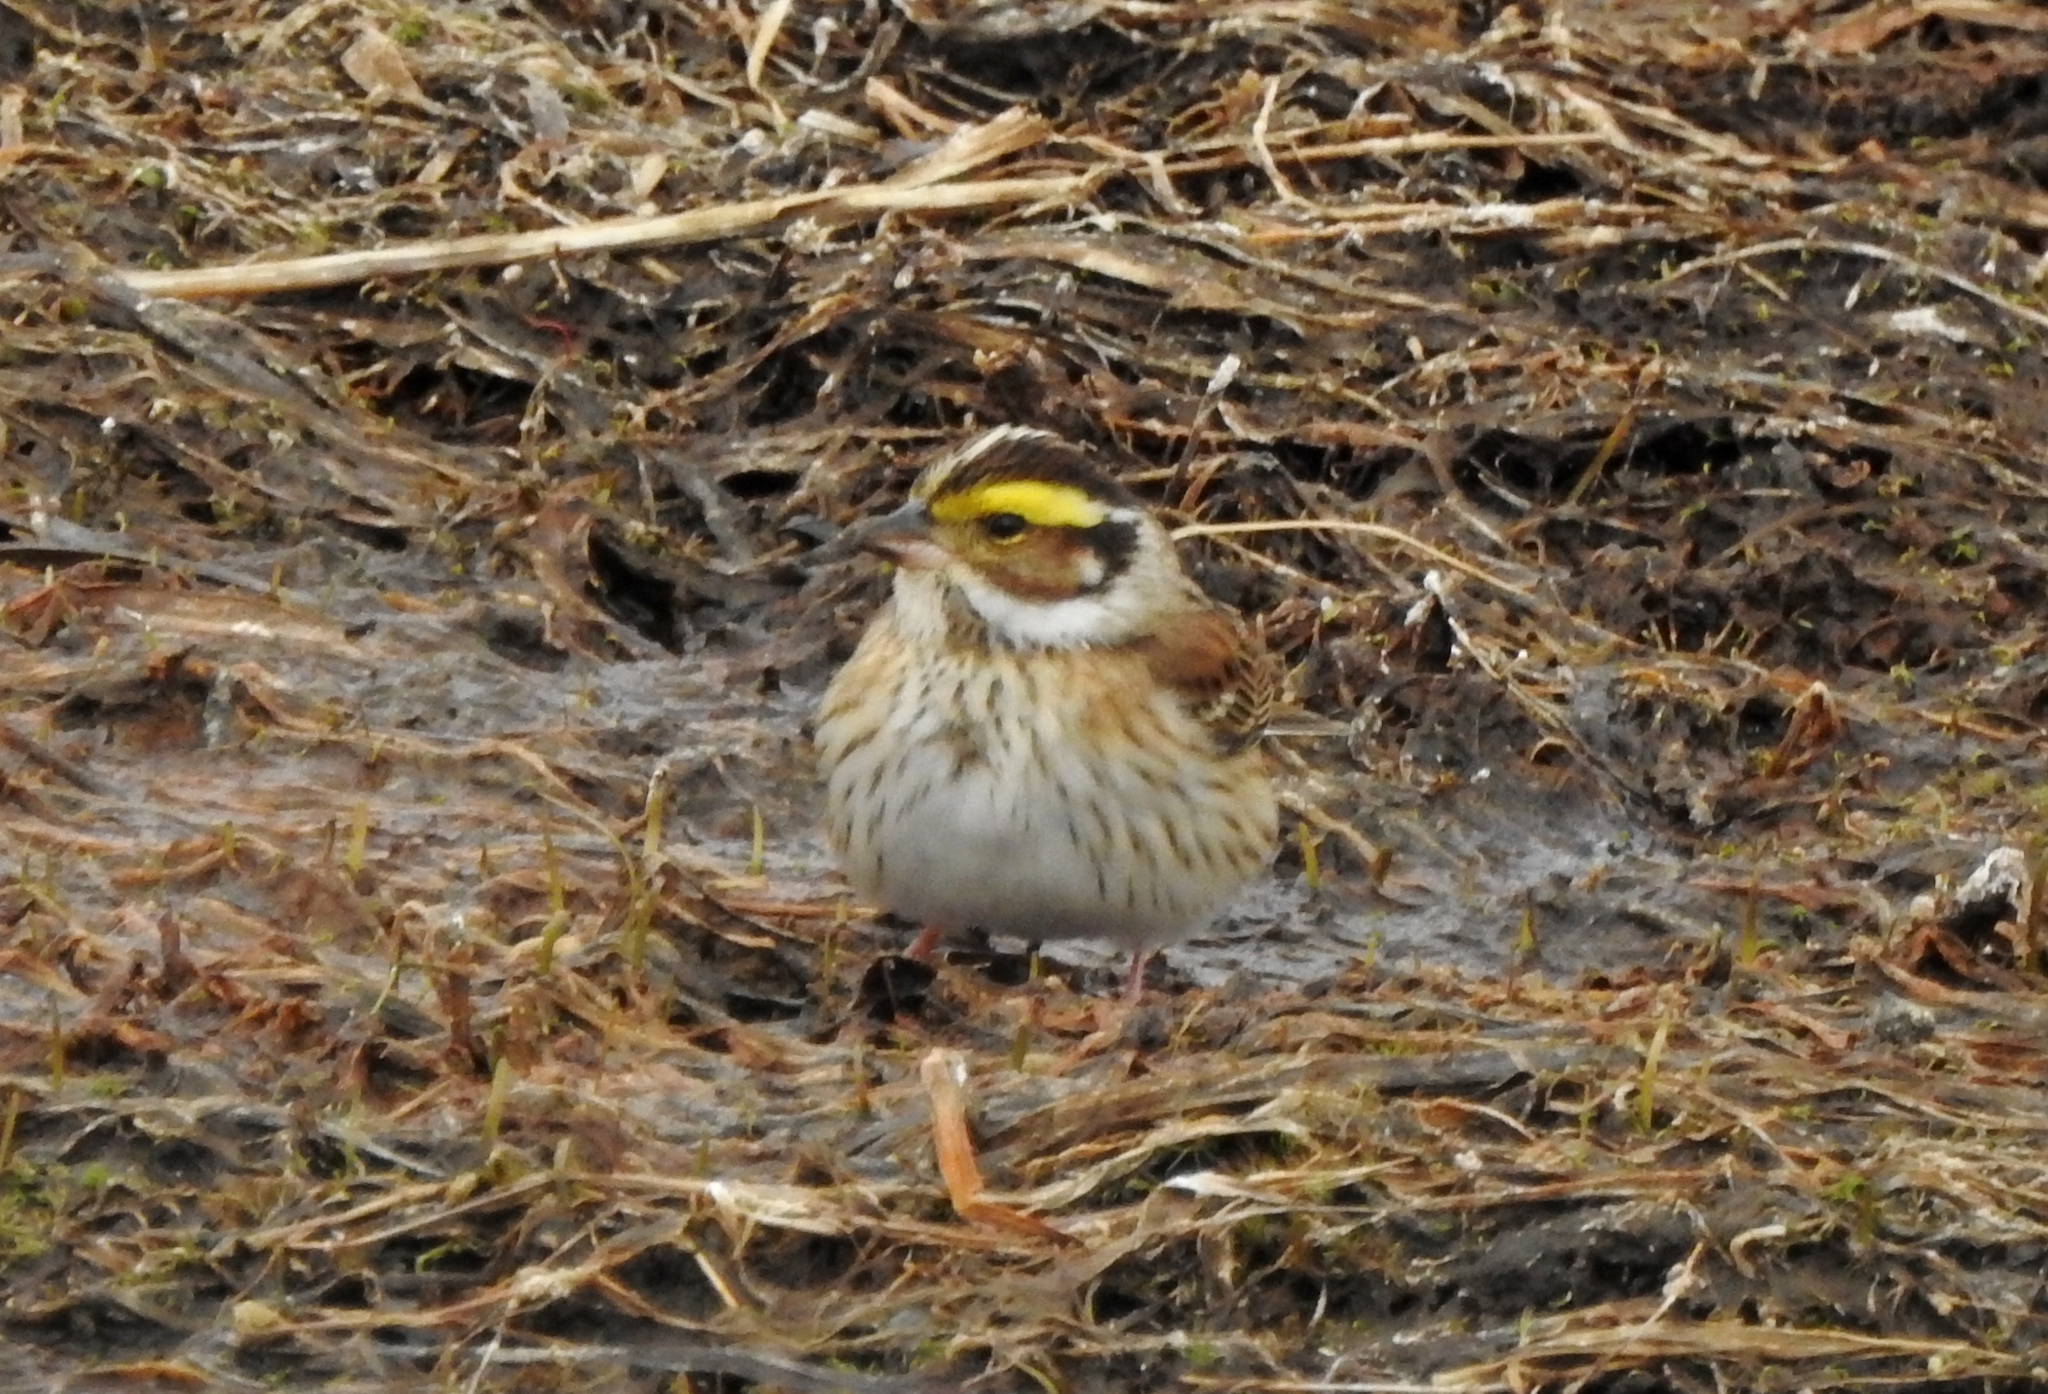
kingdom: Animalia
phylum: Chordata
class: Aves
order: Passeriformes
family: Emberizidae
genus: Emberiza
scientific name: Emberiza chrysophrys
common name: Yellow-browed bunting
